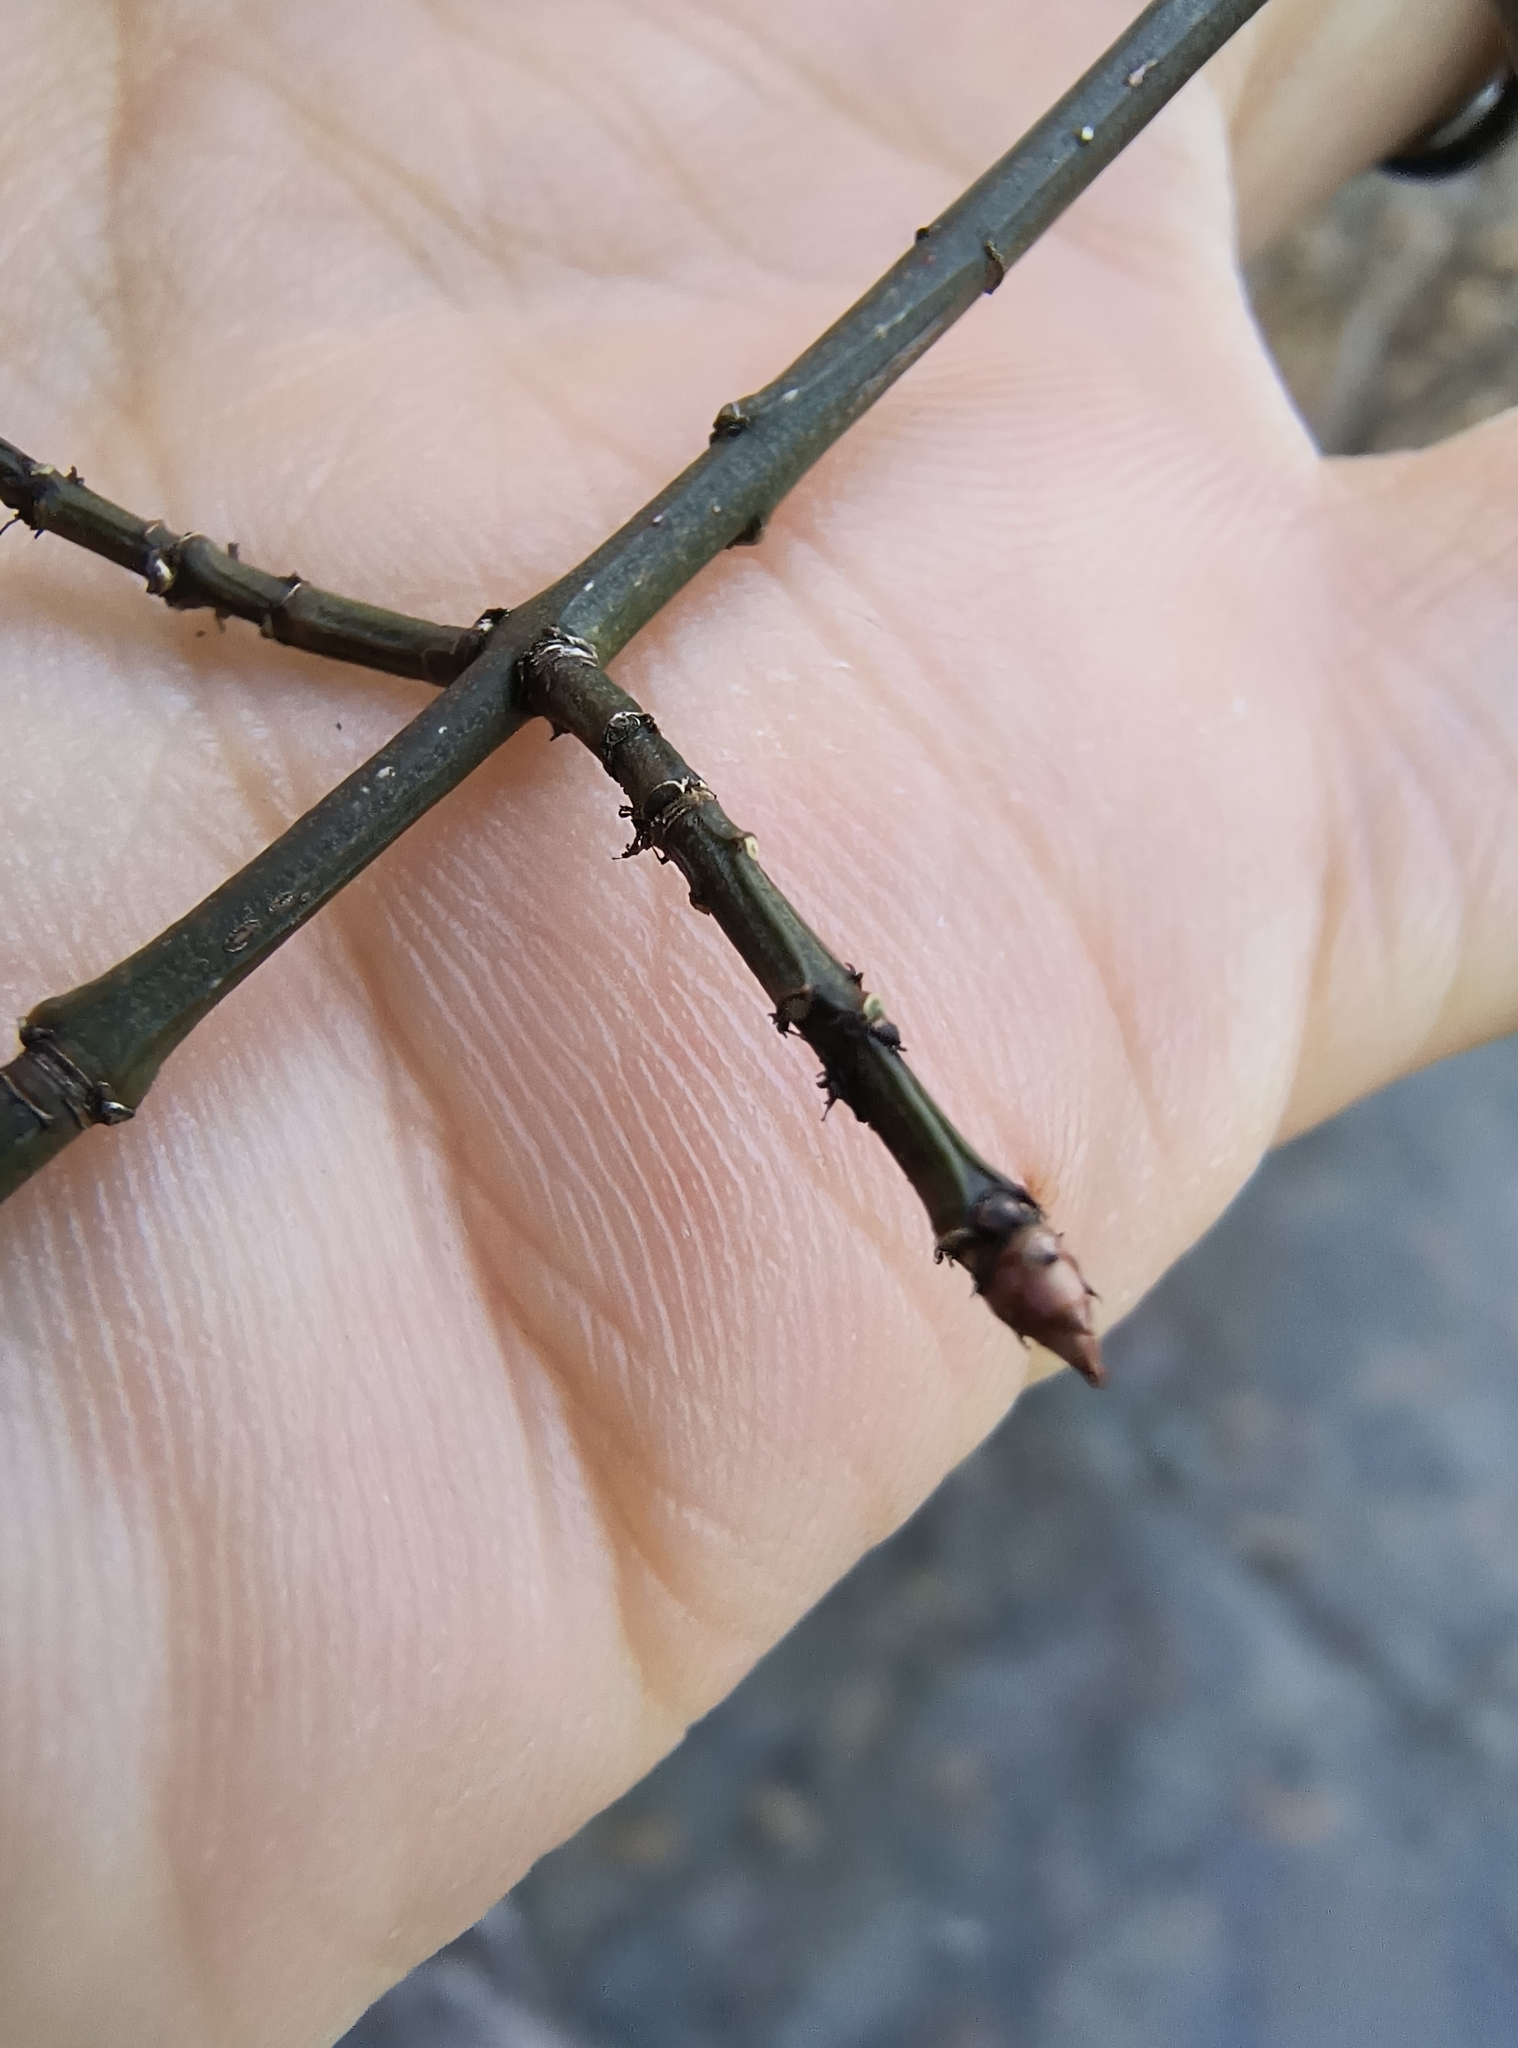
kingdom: Plantae
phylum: Tracheophyta
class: Magnoliopsida
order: Celastrales
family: Celastraceae
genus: Euonymus
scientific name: Euonymus alatus
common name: Winged euonymus
